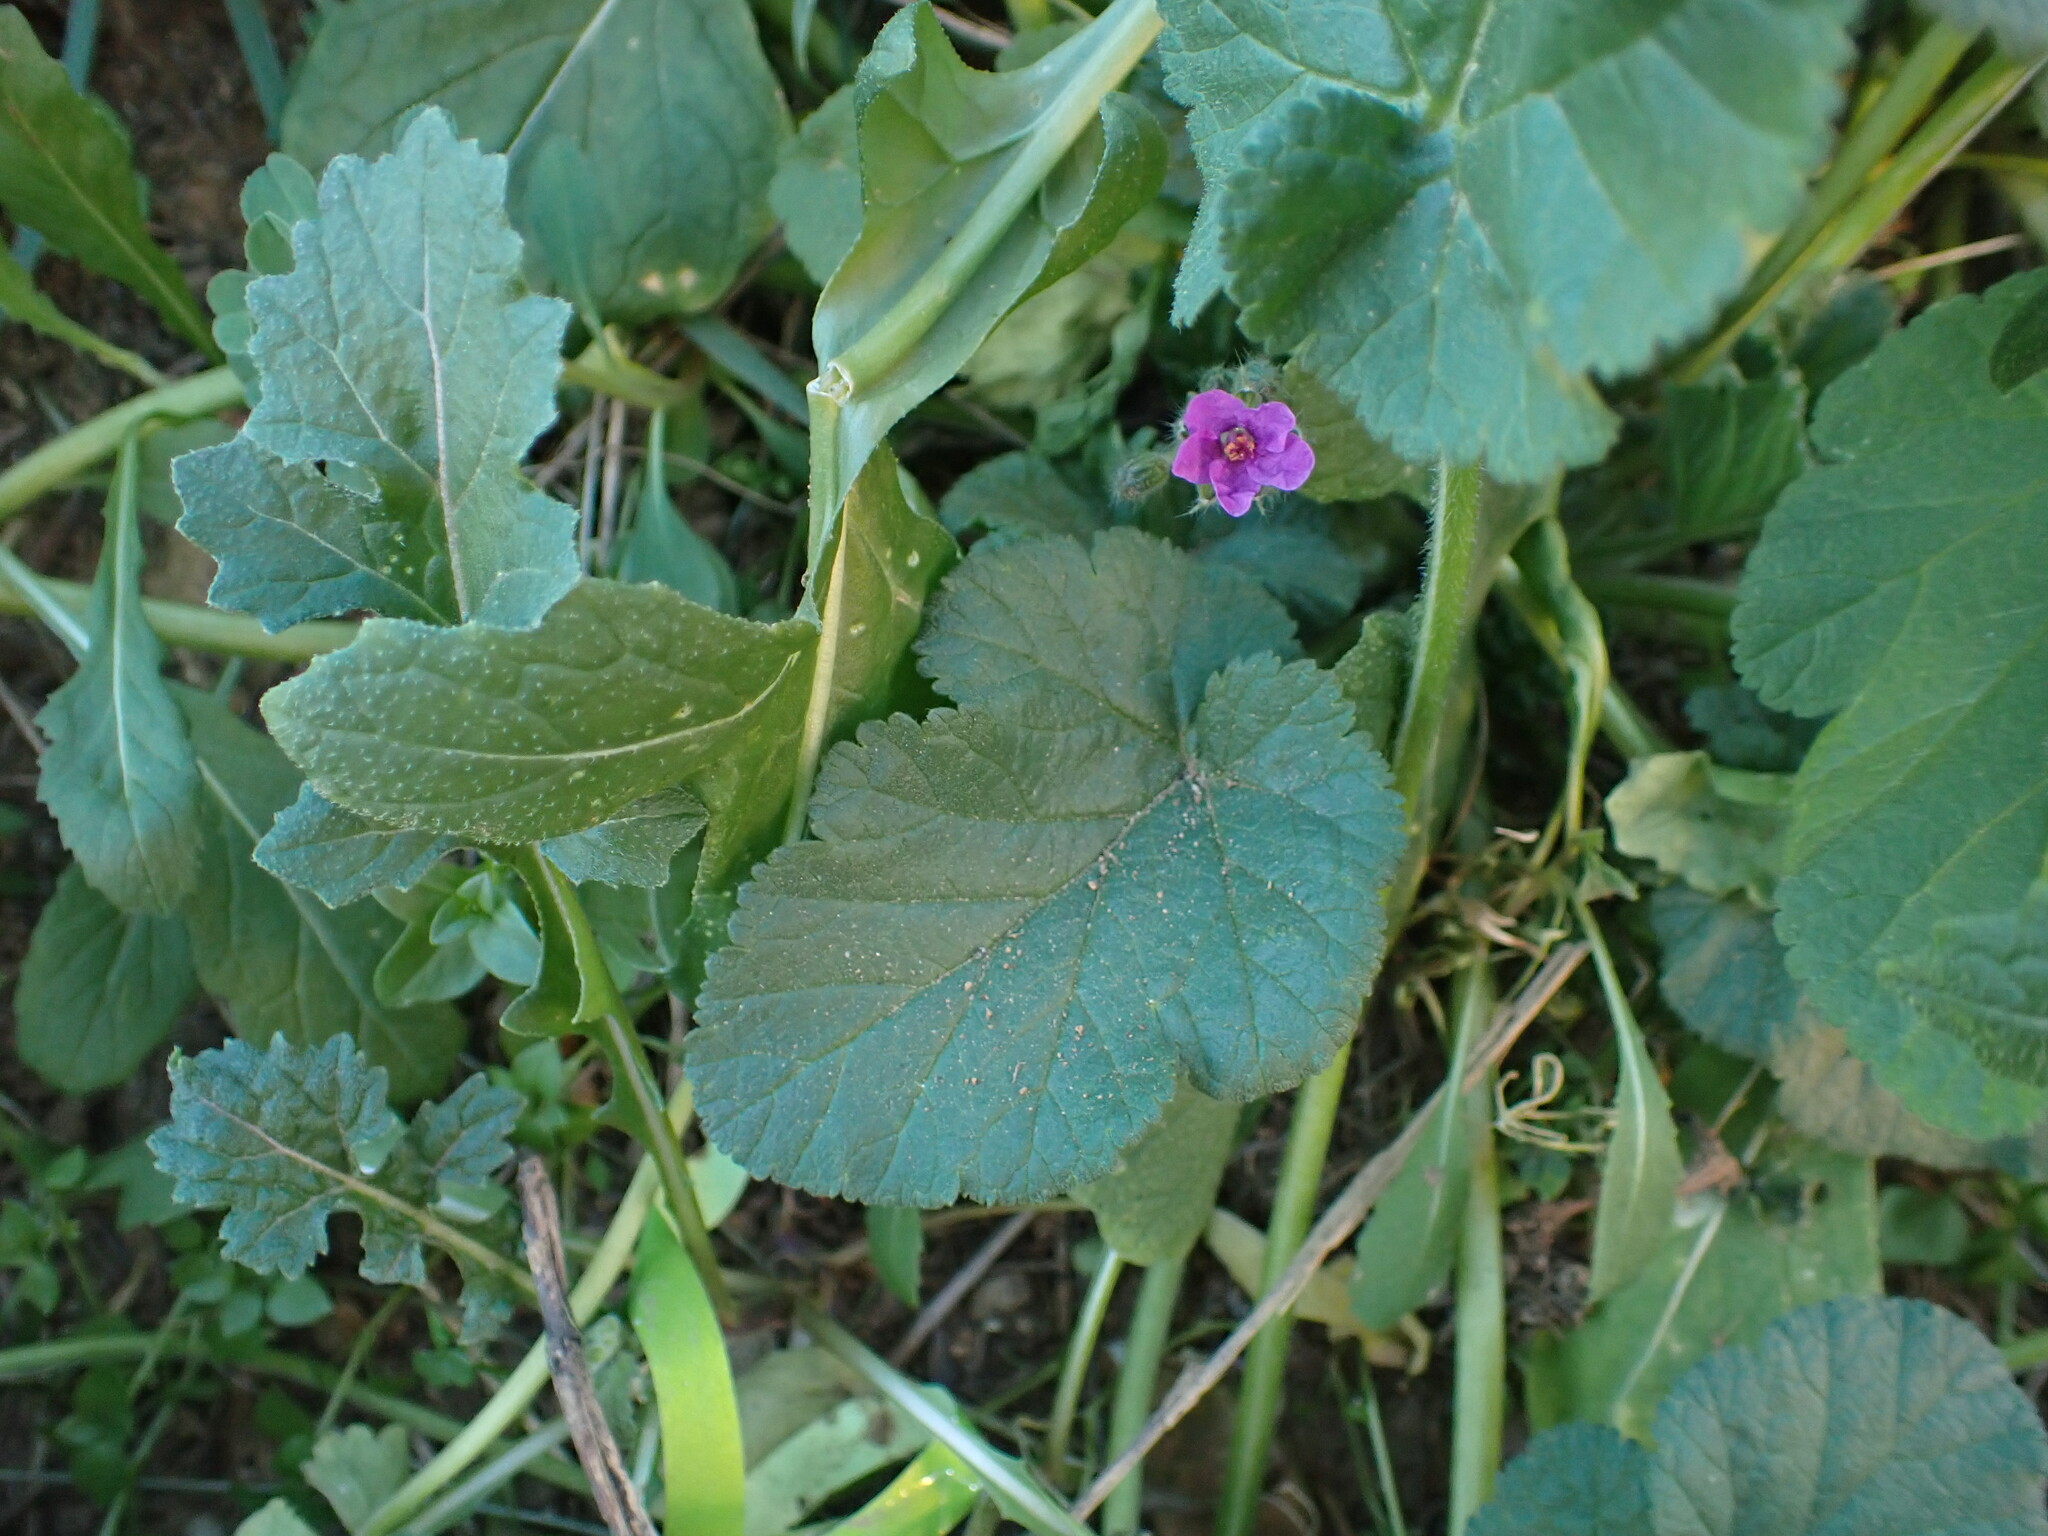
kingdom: Plantae
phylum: Tracheophyta
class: Magnoliopsida
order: Geraniales
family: Geraniaceae
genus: Erodium
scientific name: Erodium malacoides
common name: Soft stork's-bill
